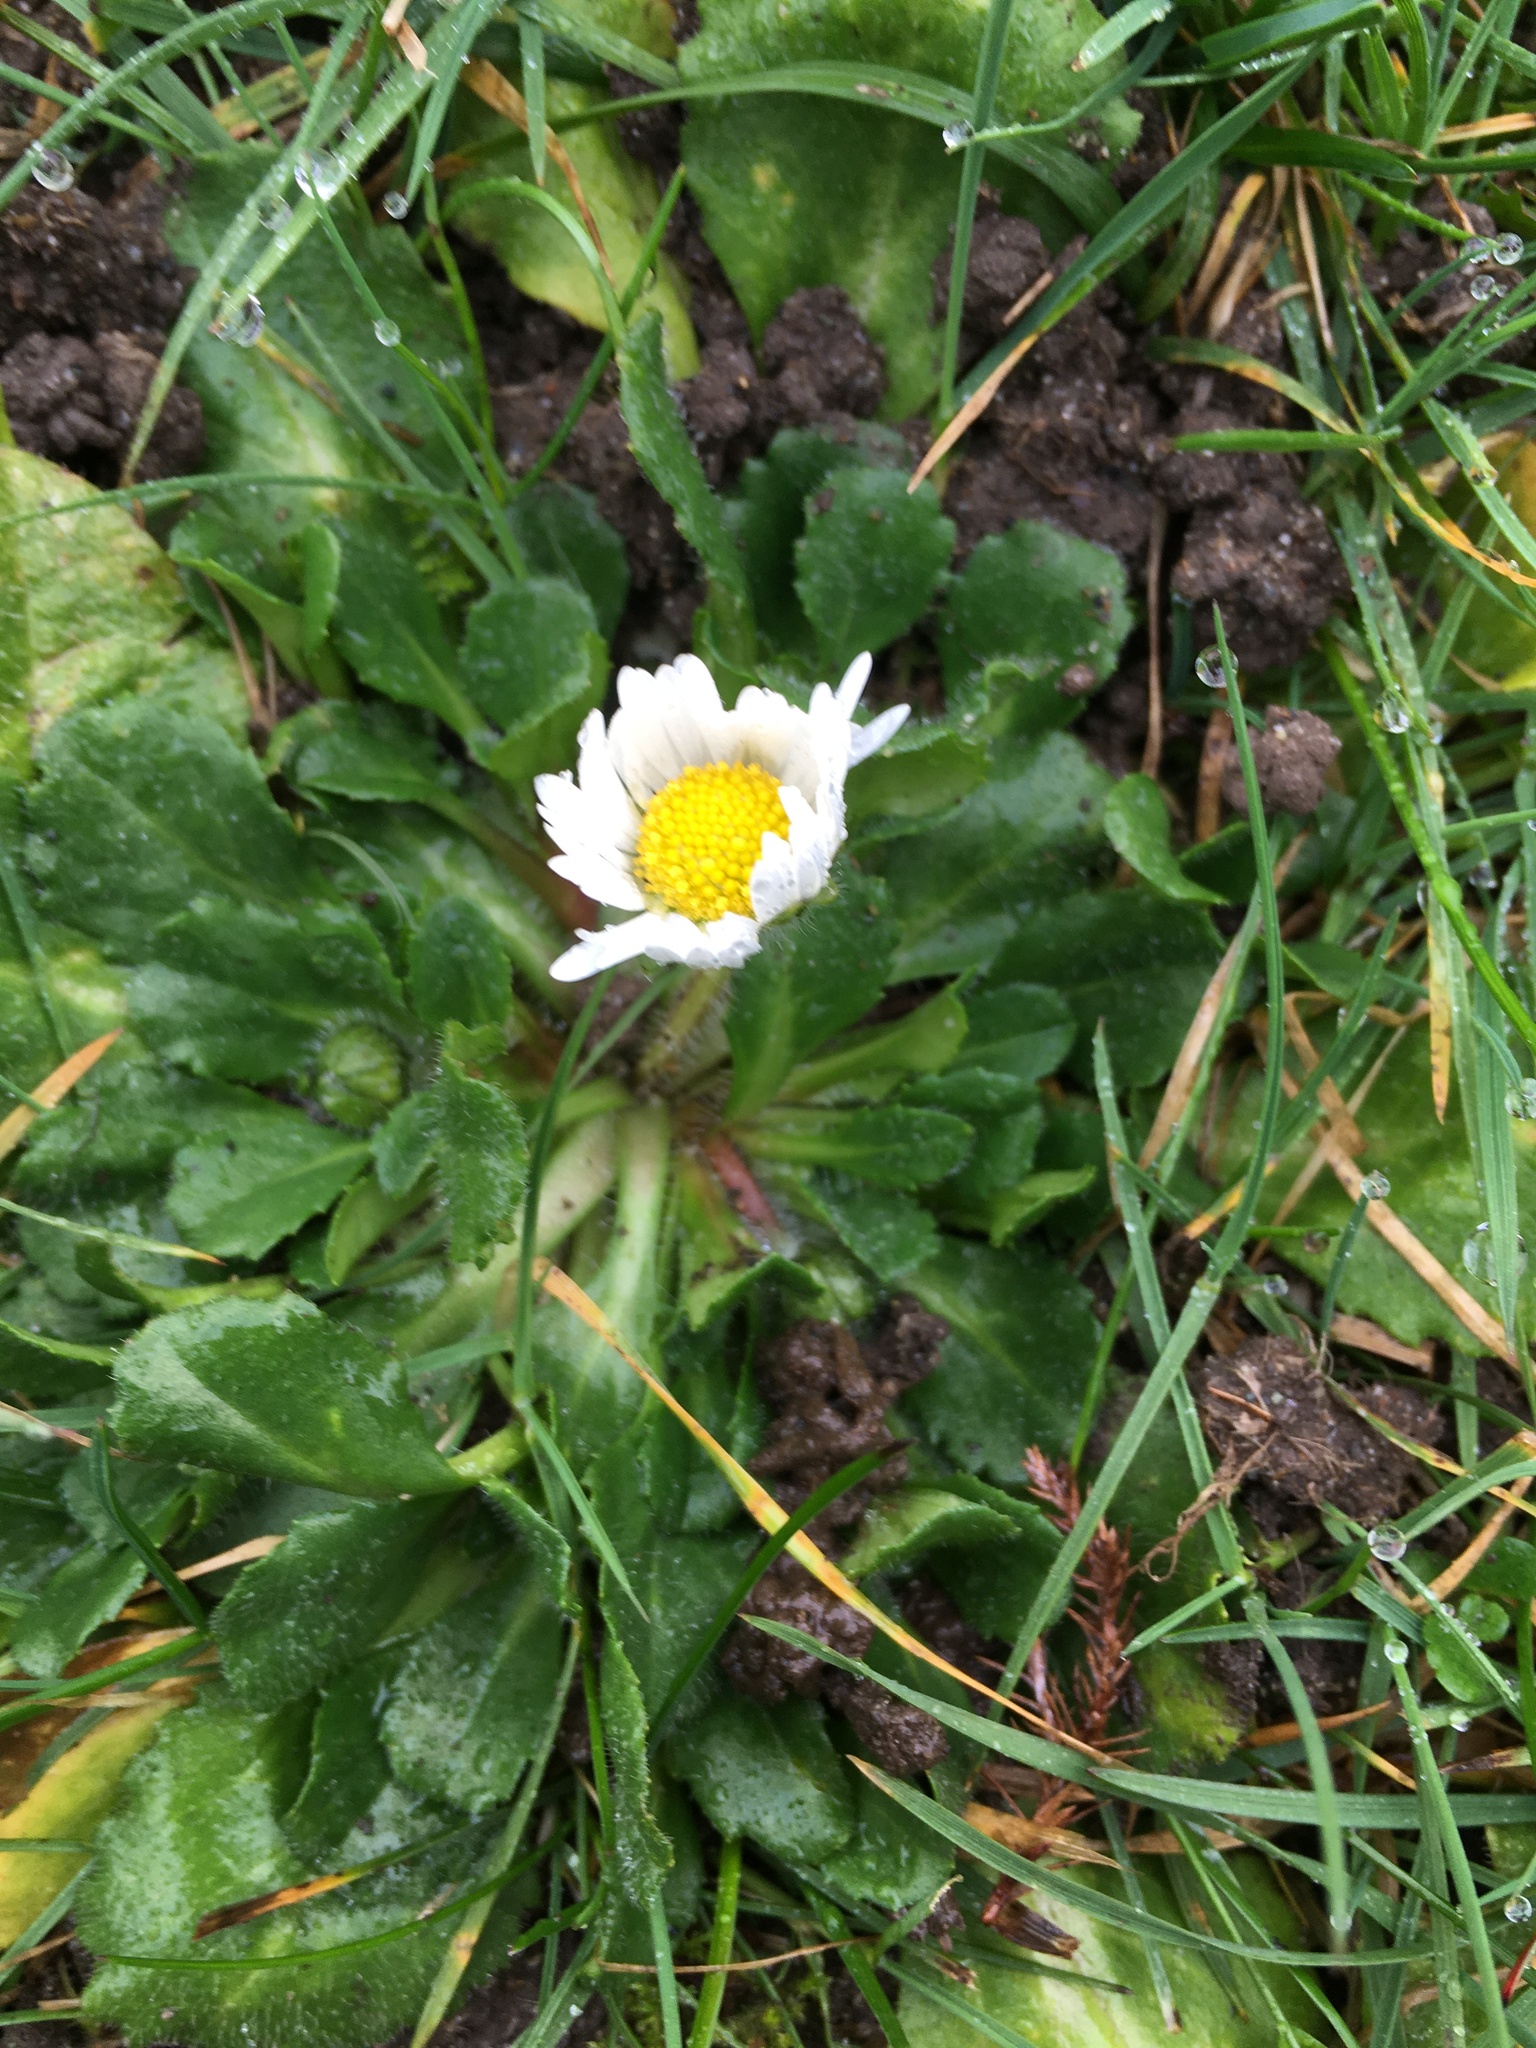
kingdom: Plantae
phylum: Tracheophyta
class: Magnoliopsida
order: Asterales
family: Asteraceae
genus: Bellis
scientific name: Bellis perennis
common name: Lawndaisy
